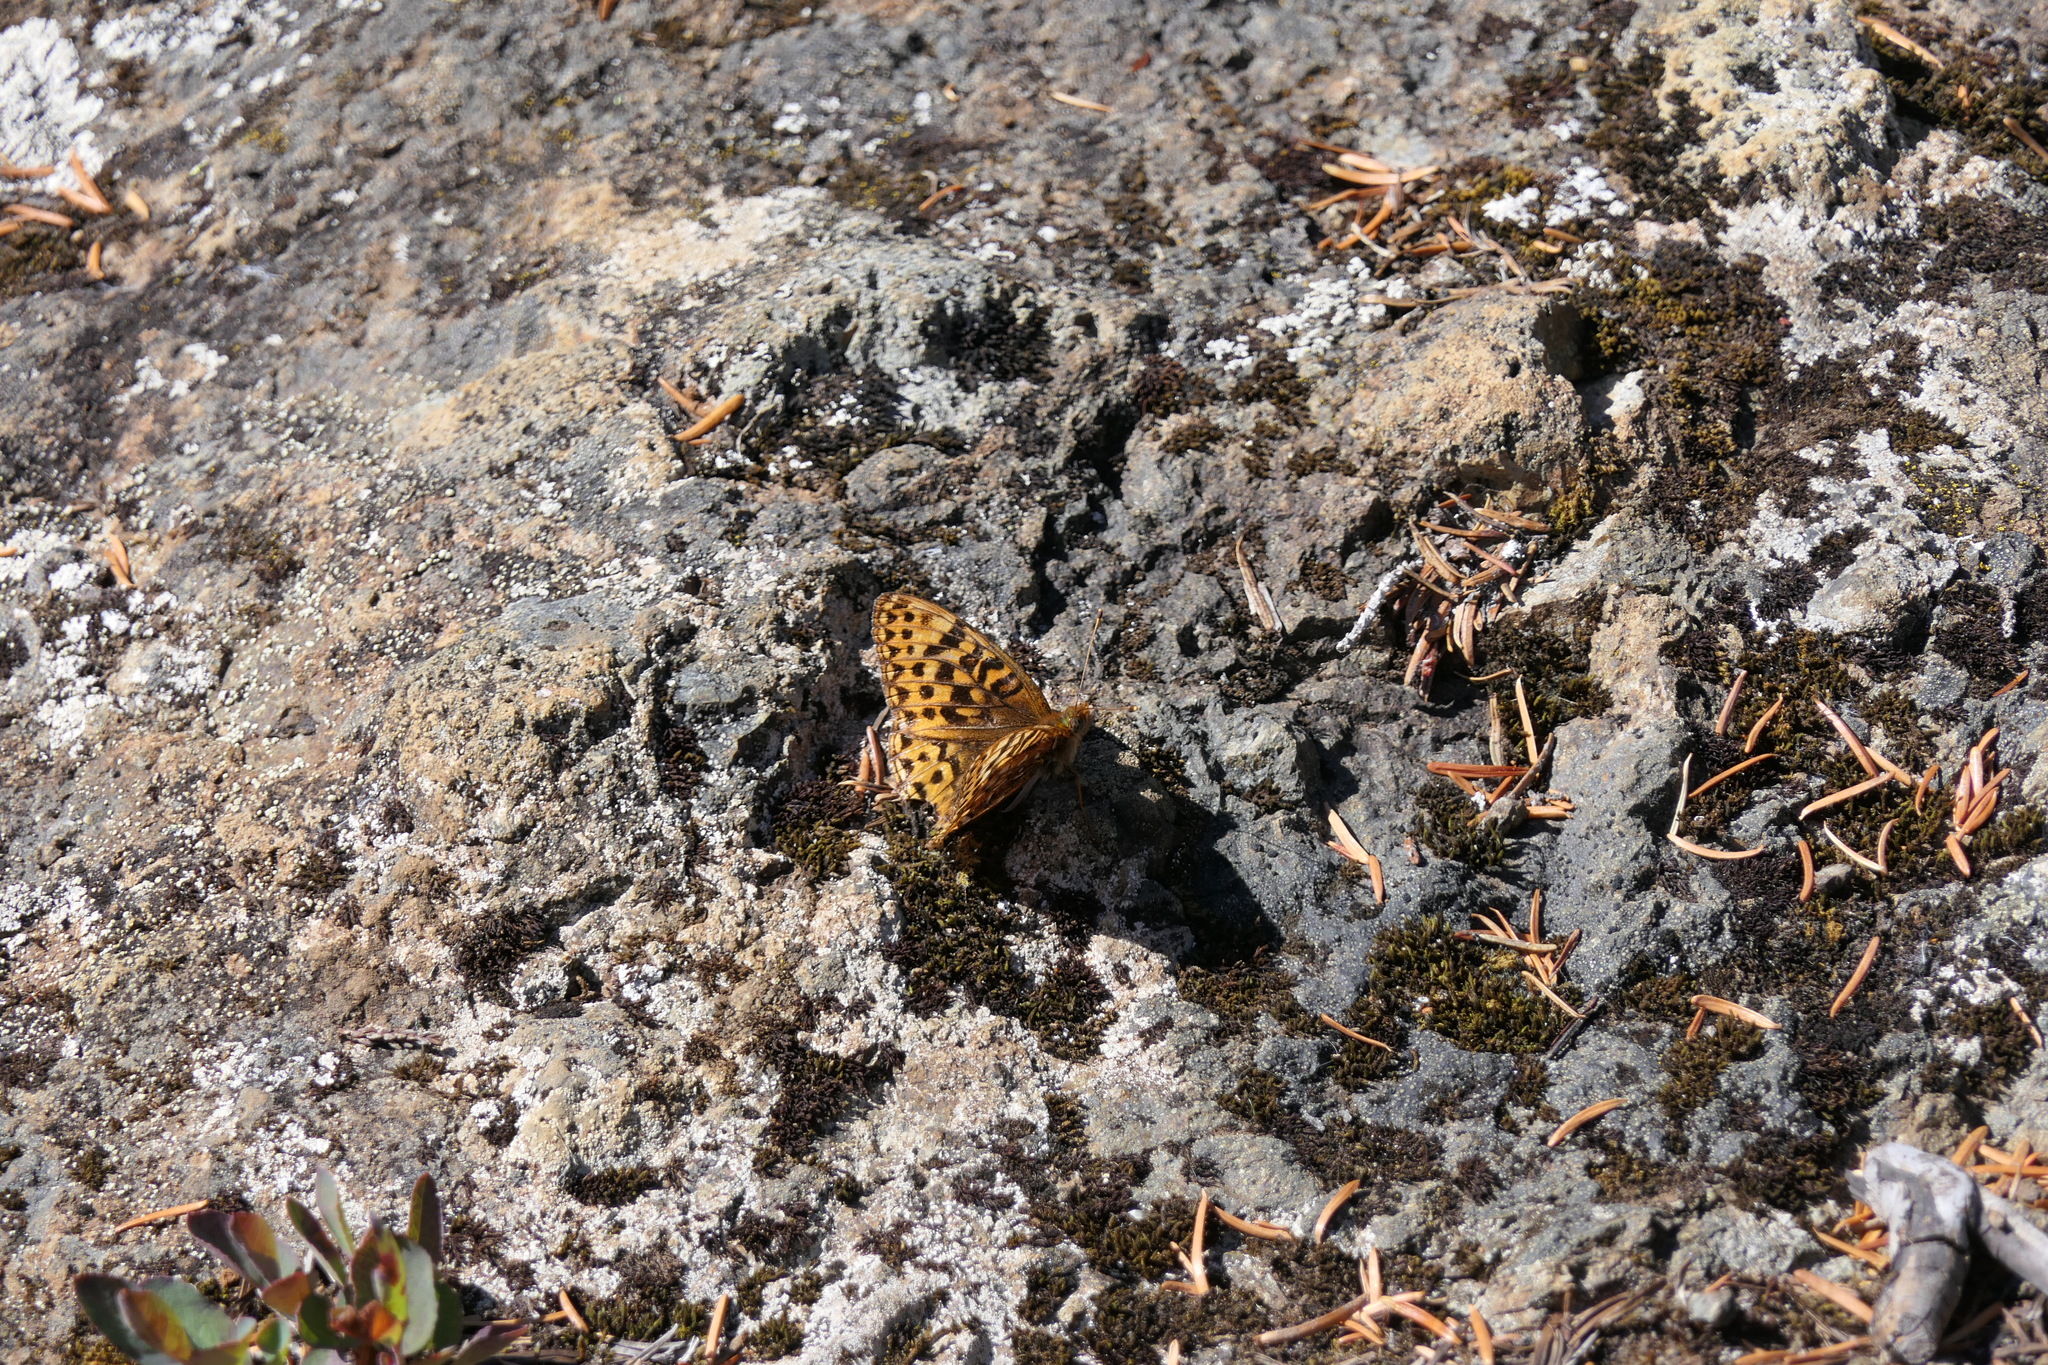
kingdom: Animalia
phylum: Arthropoda
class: Insecta
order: Lepidoptera
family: Nymphalidae
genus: Speyeria
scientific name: Speyeria hydaspe
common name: Hydaspe fritillary
